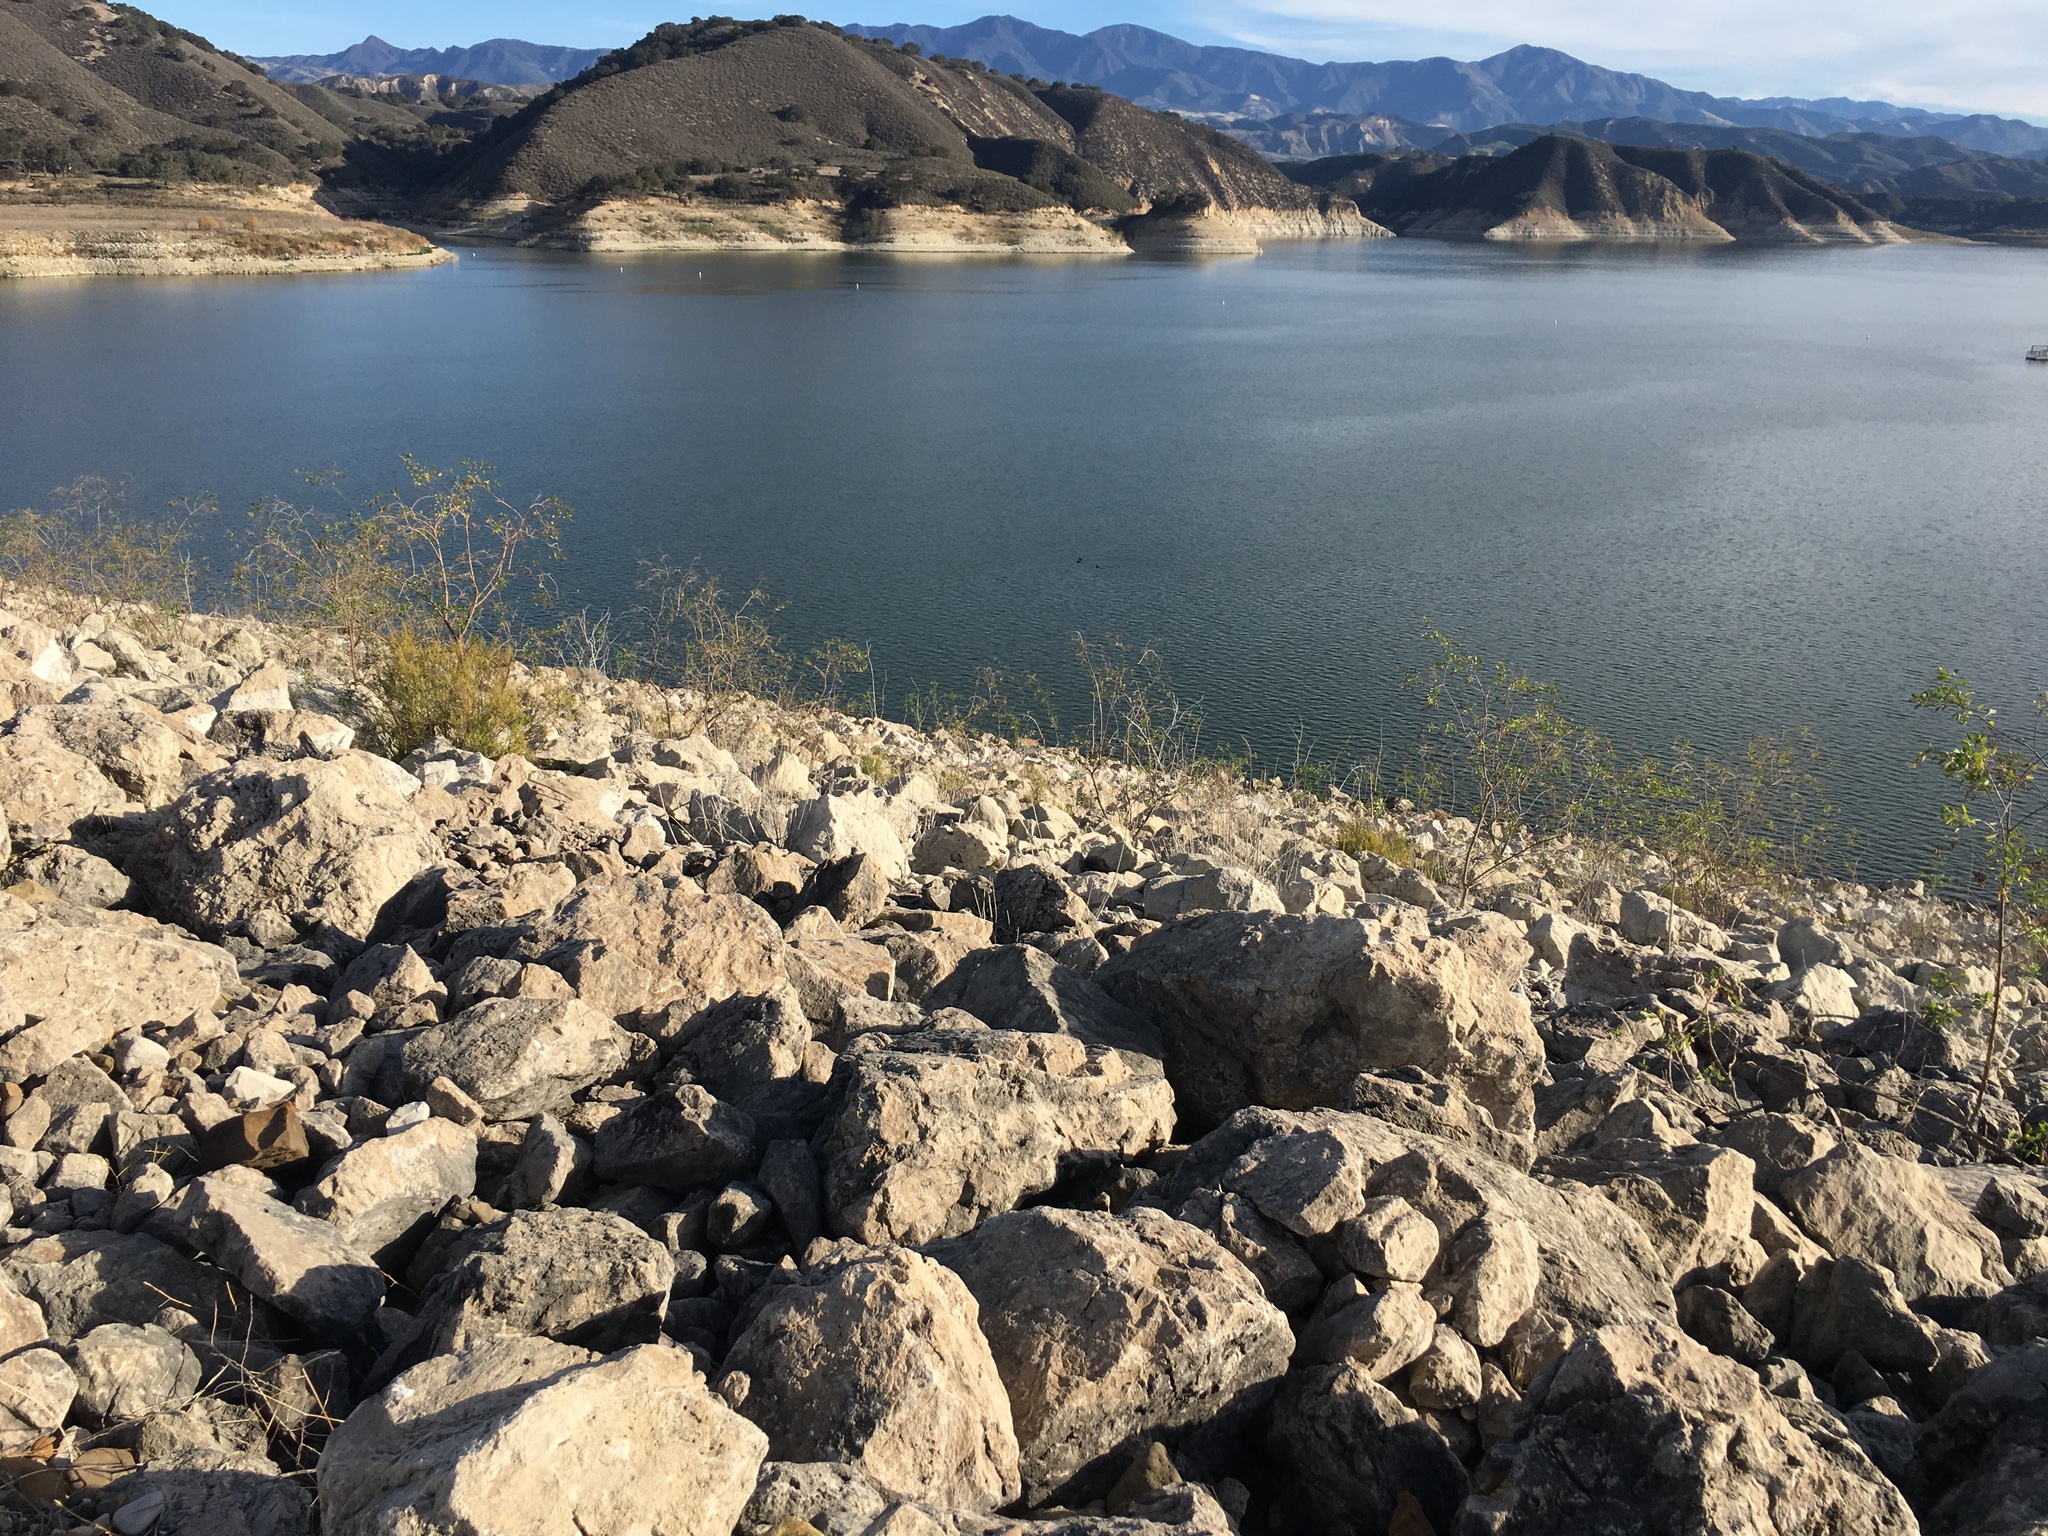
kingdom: Plantae
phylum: Tracheophyta
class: Magnoliopsida
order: Solanales
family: Solanaceae
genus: Nicotiana
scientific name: Nicotiana glauca
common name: Tree tobacco
